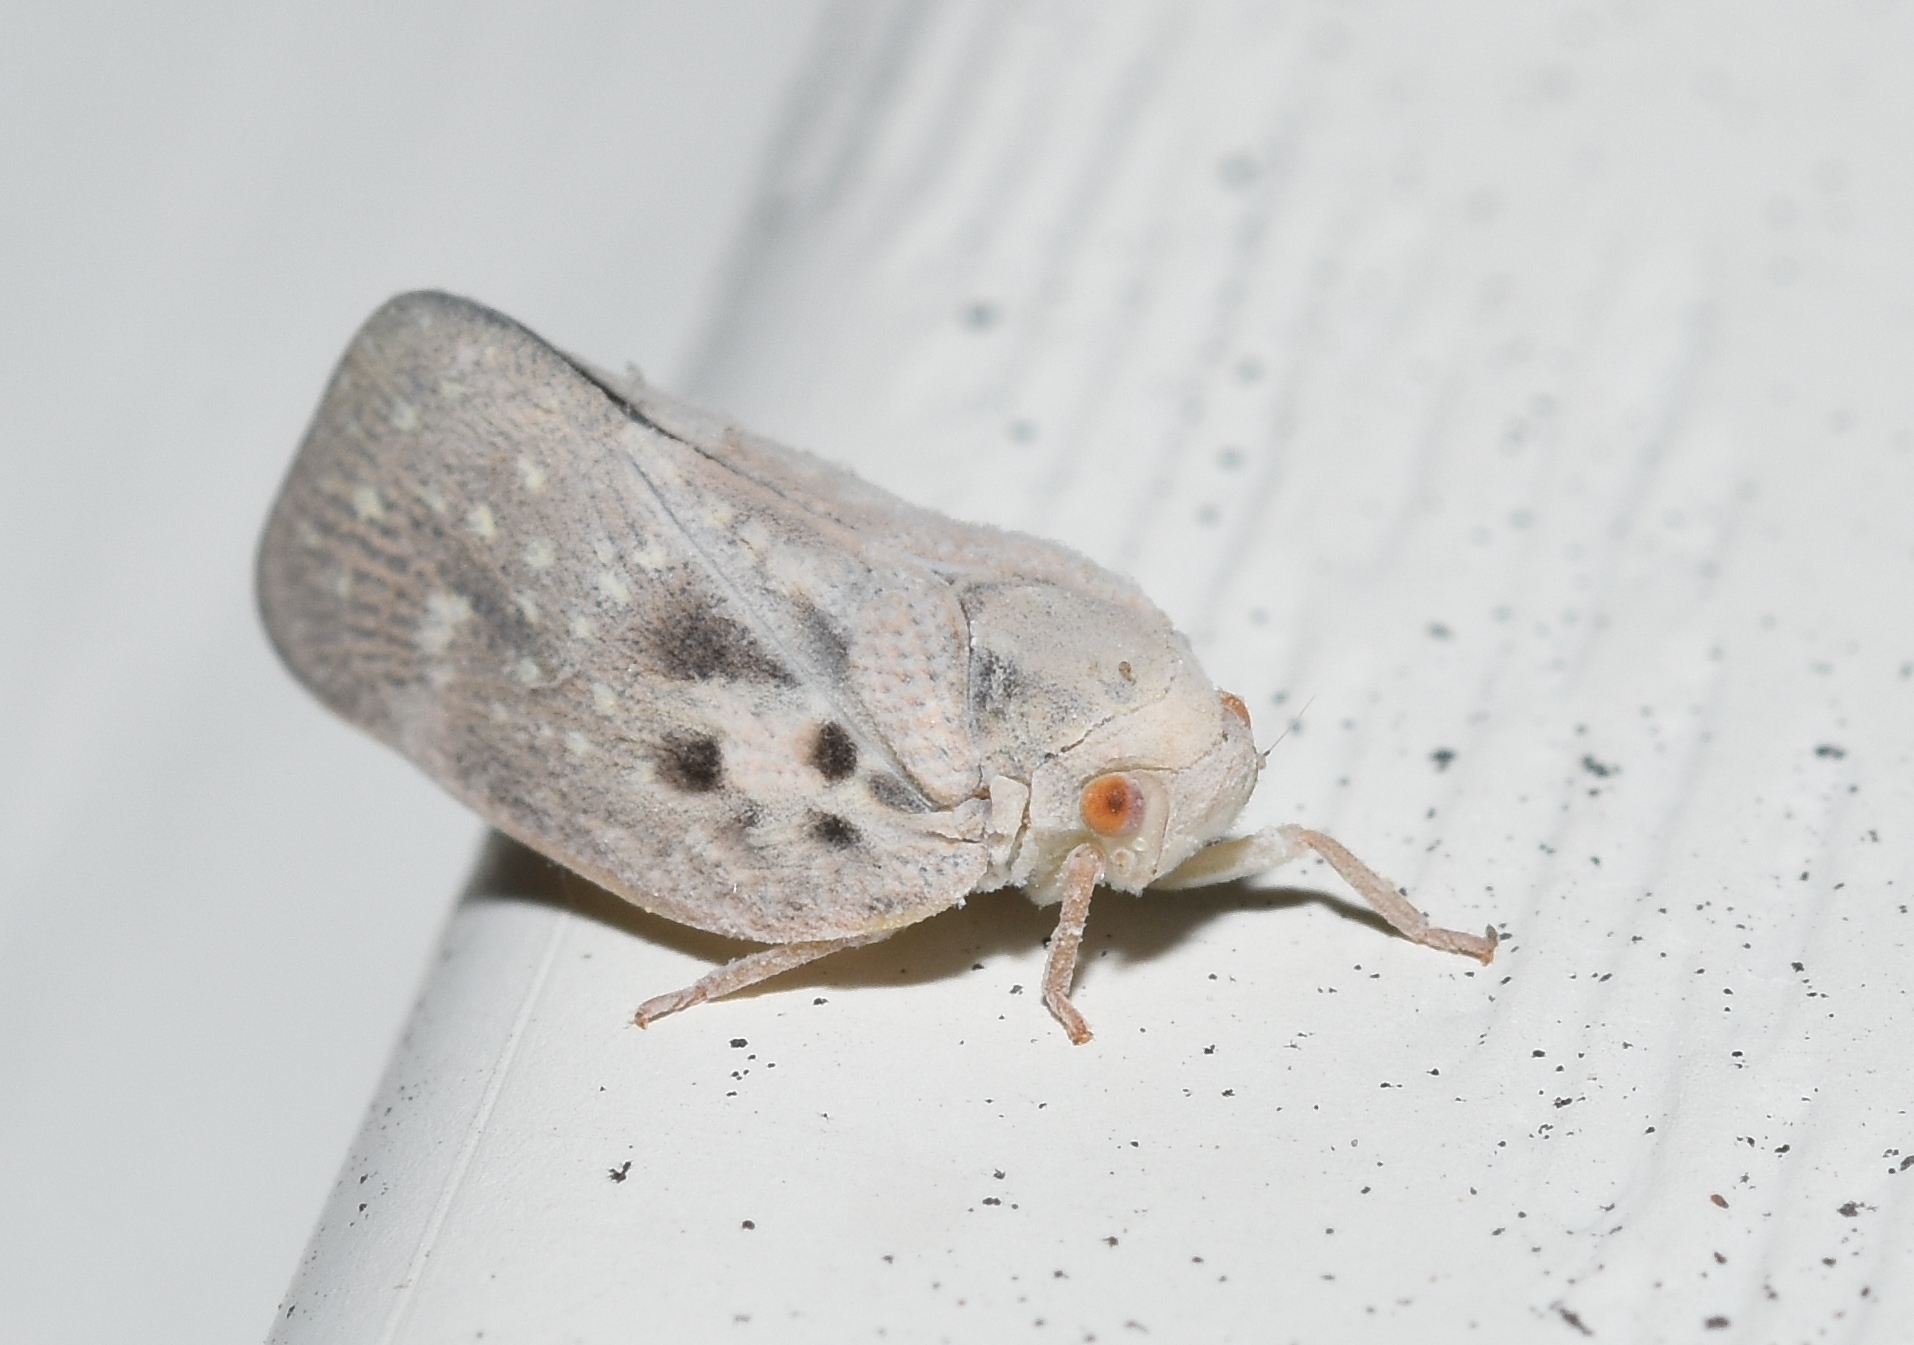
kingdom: Animalia
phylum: Arthropoda
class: Insecta
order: Hemiptera
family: Flatidae
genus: Metcalfa
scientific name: Metcalfa pruinosa
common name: Citrus flatid planthopper
